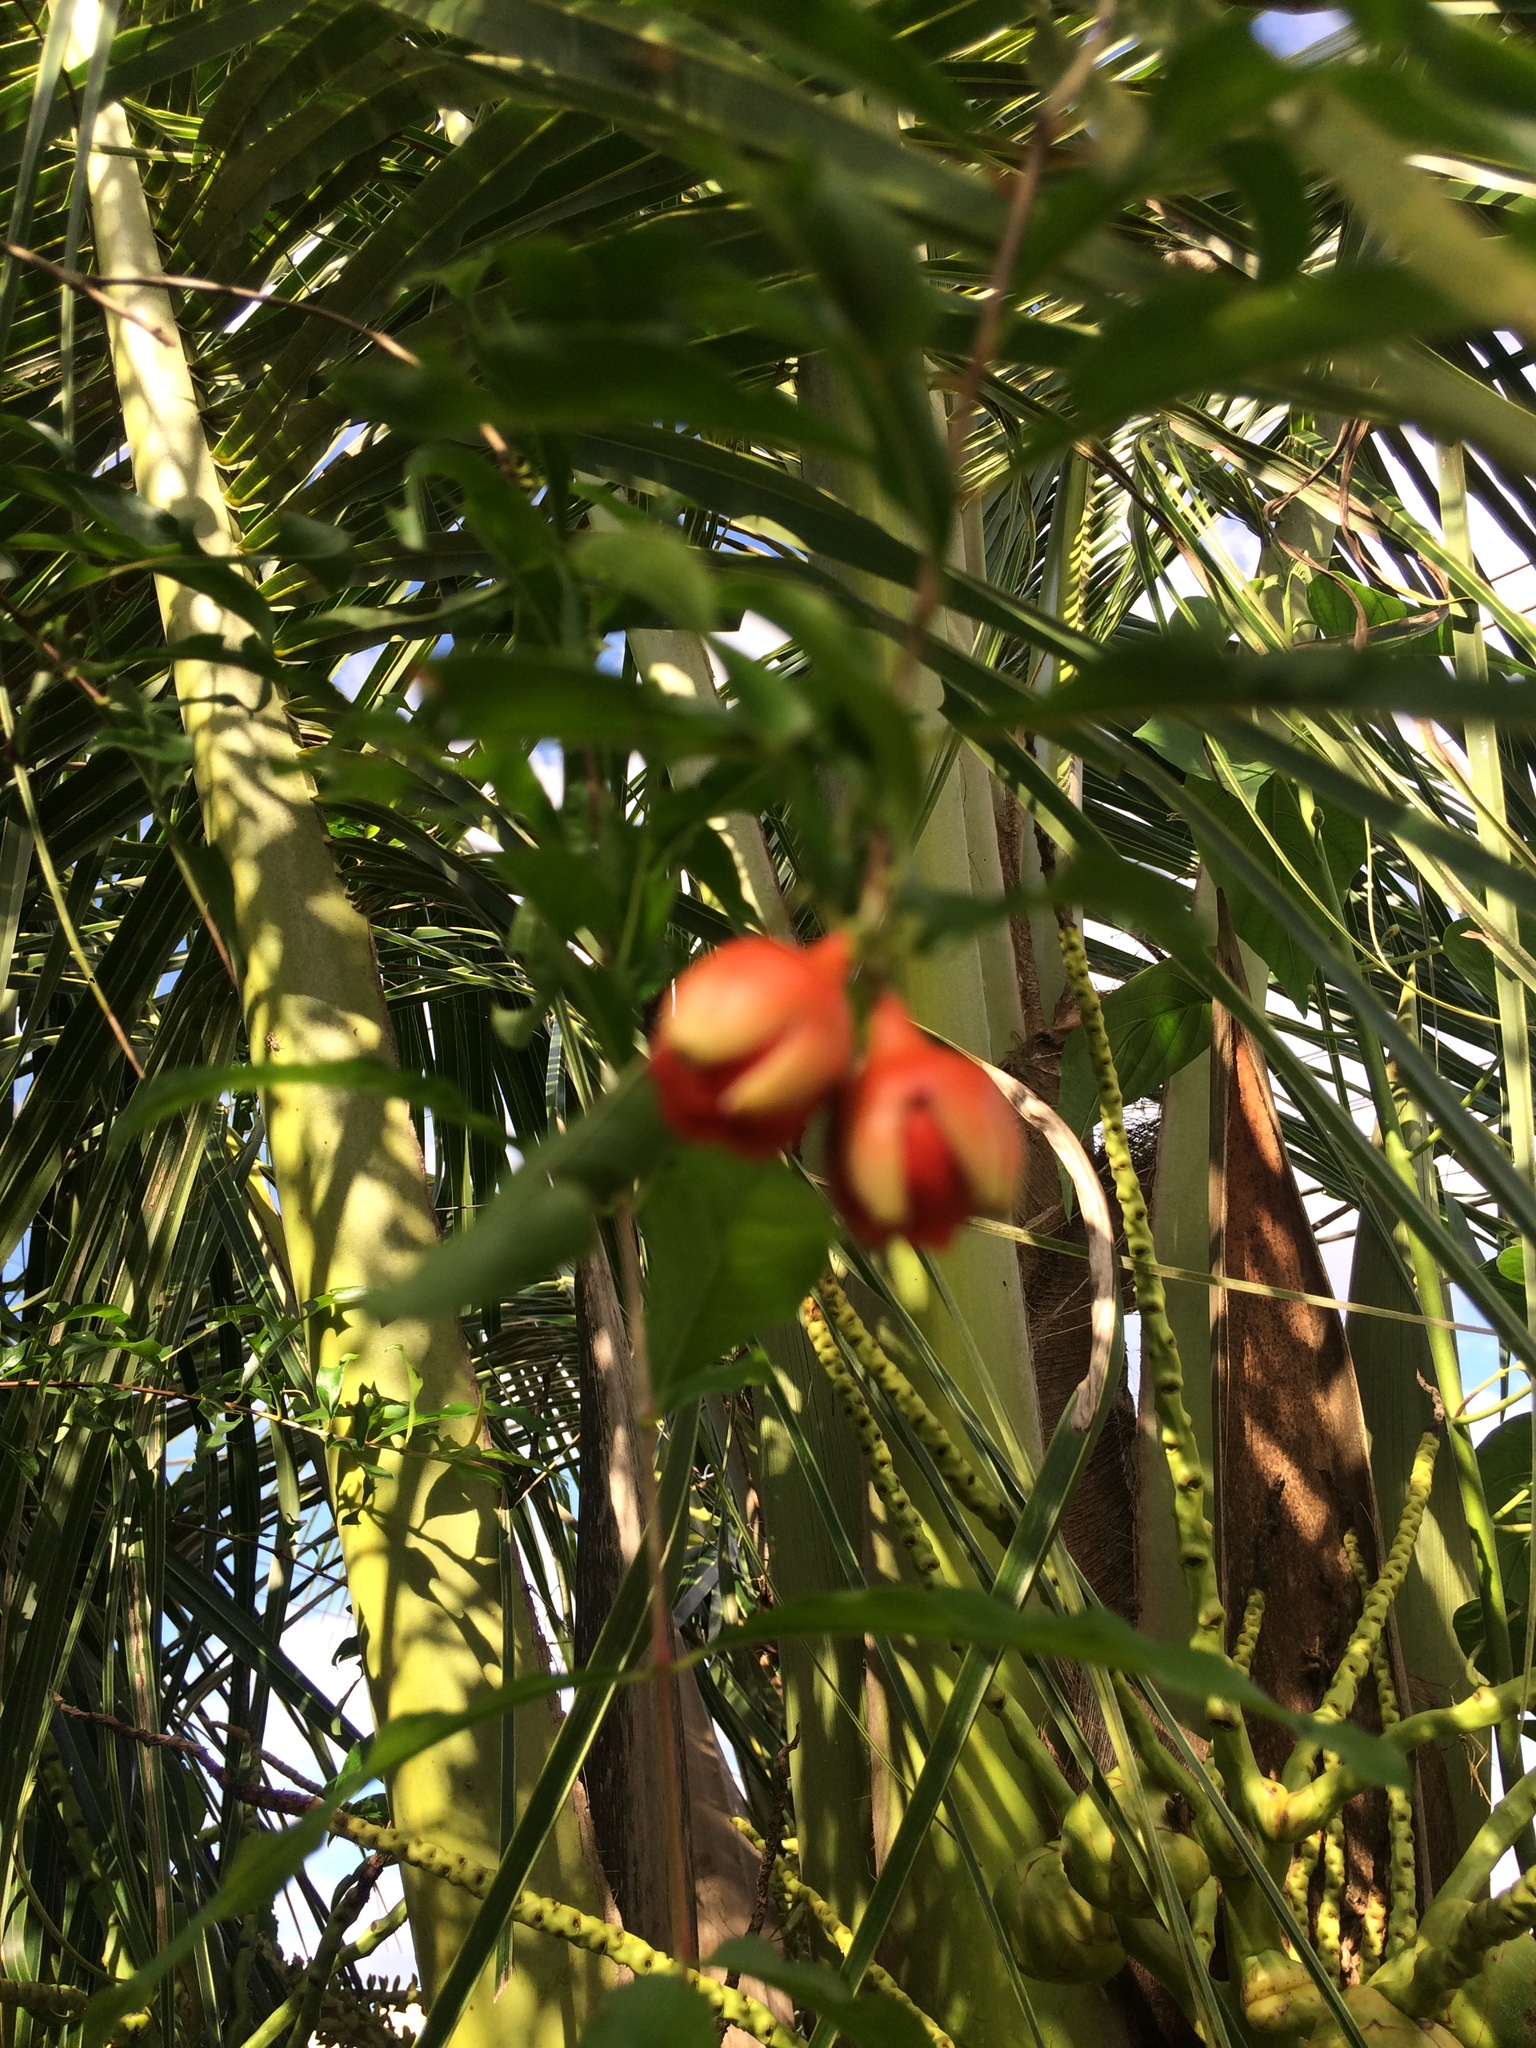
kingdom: Plantae
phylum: Tracheophyta
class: Magnoliopsida
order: Myrtales
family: Lythraceae
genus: Punica
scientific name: Punica granatum
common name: Pomegranate
